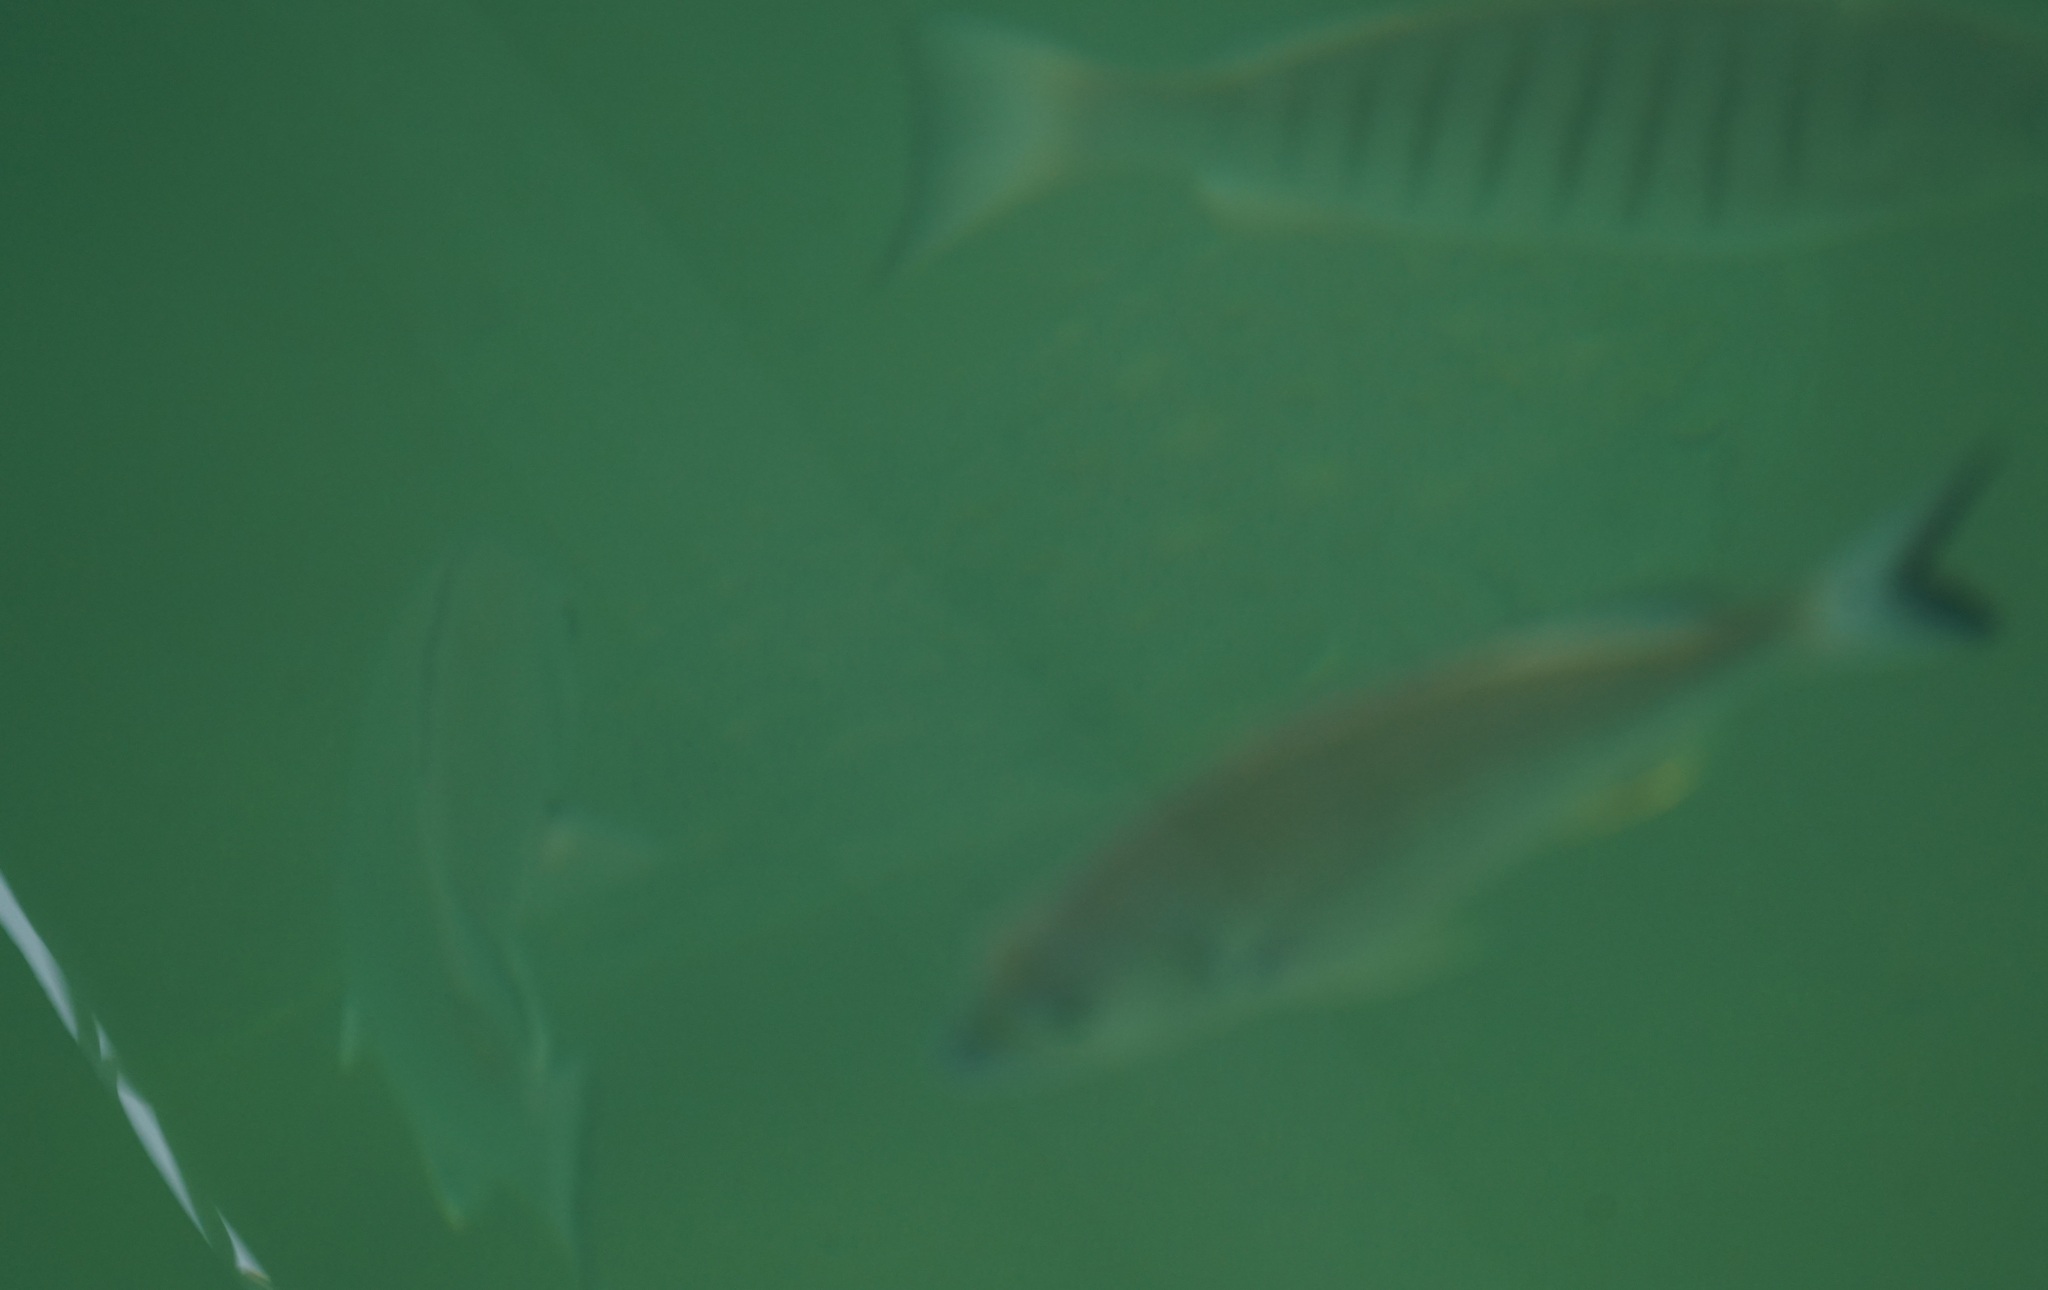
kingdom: Animalia
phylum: Chordata
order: Tetraodontiformes
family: Diodontidae
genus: Dicotylichthys
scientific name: Dicotylichthys punctulatus
